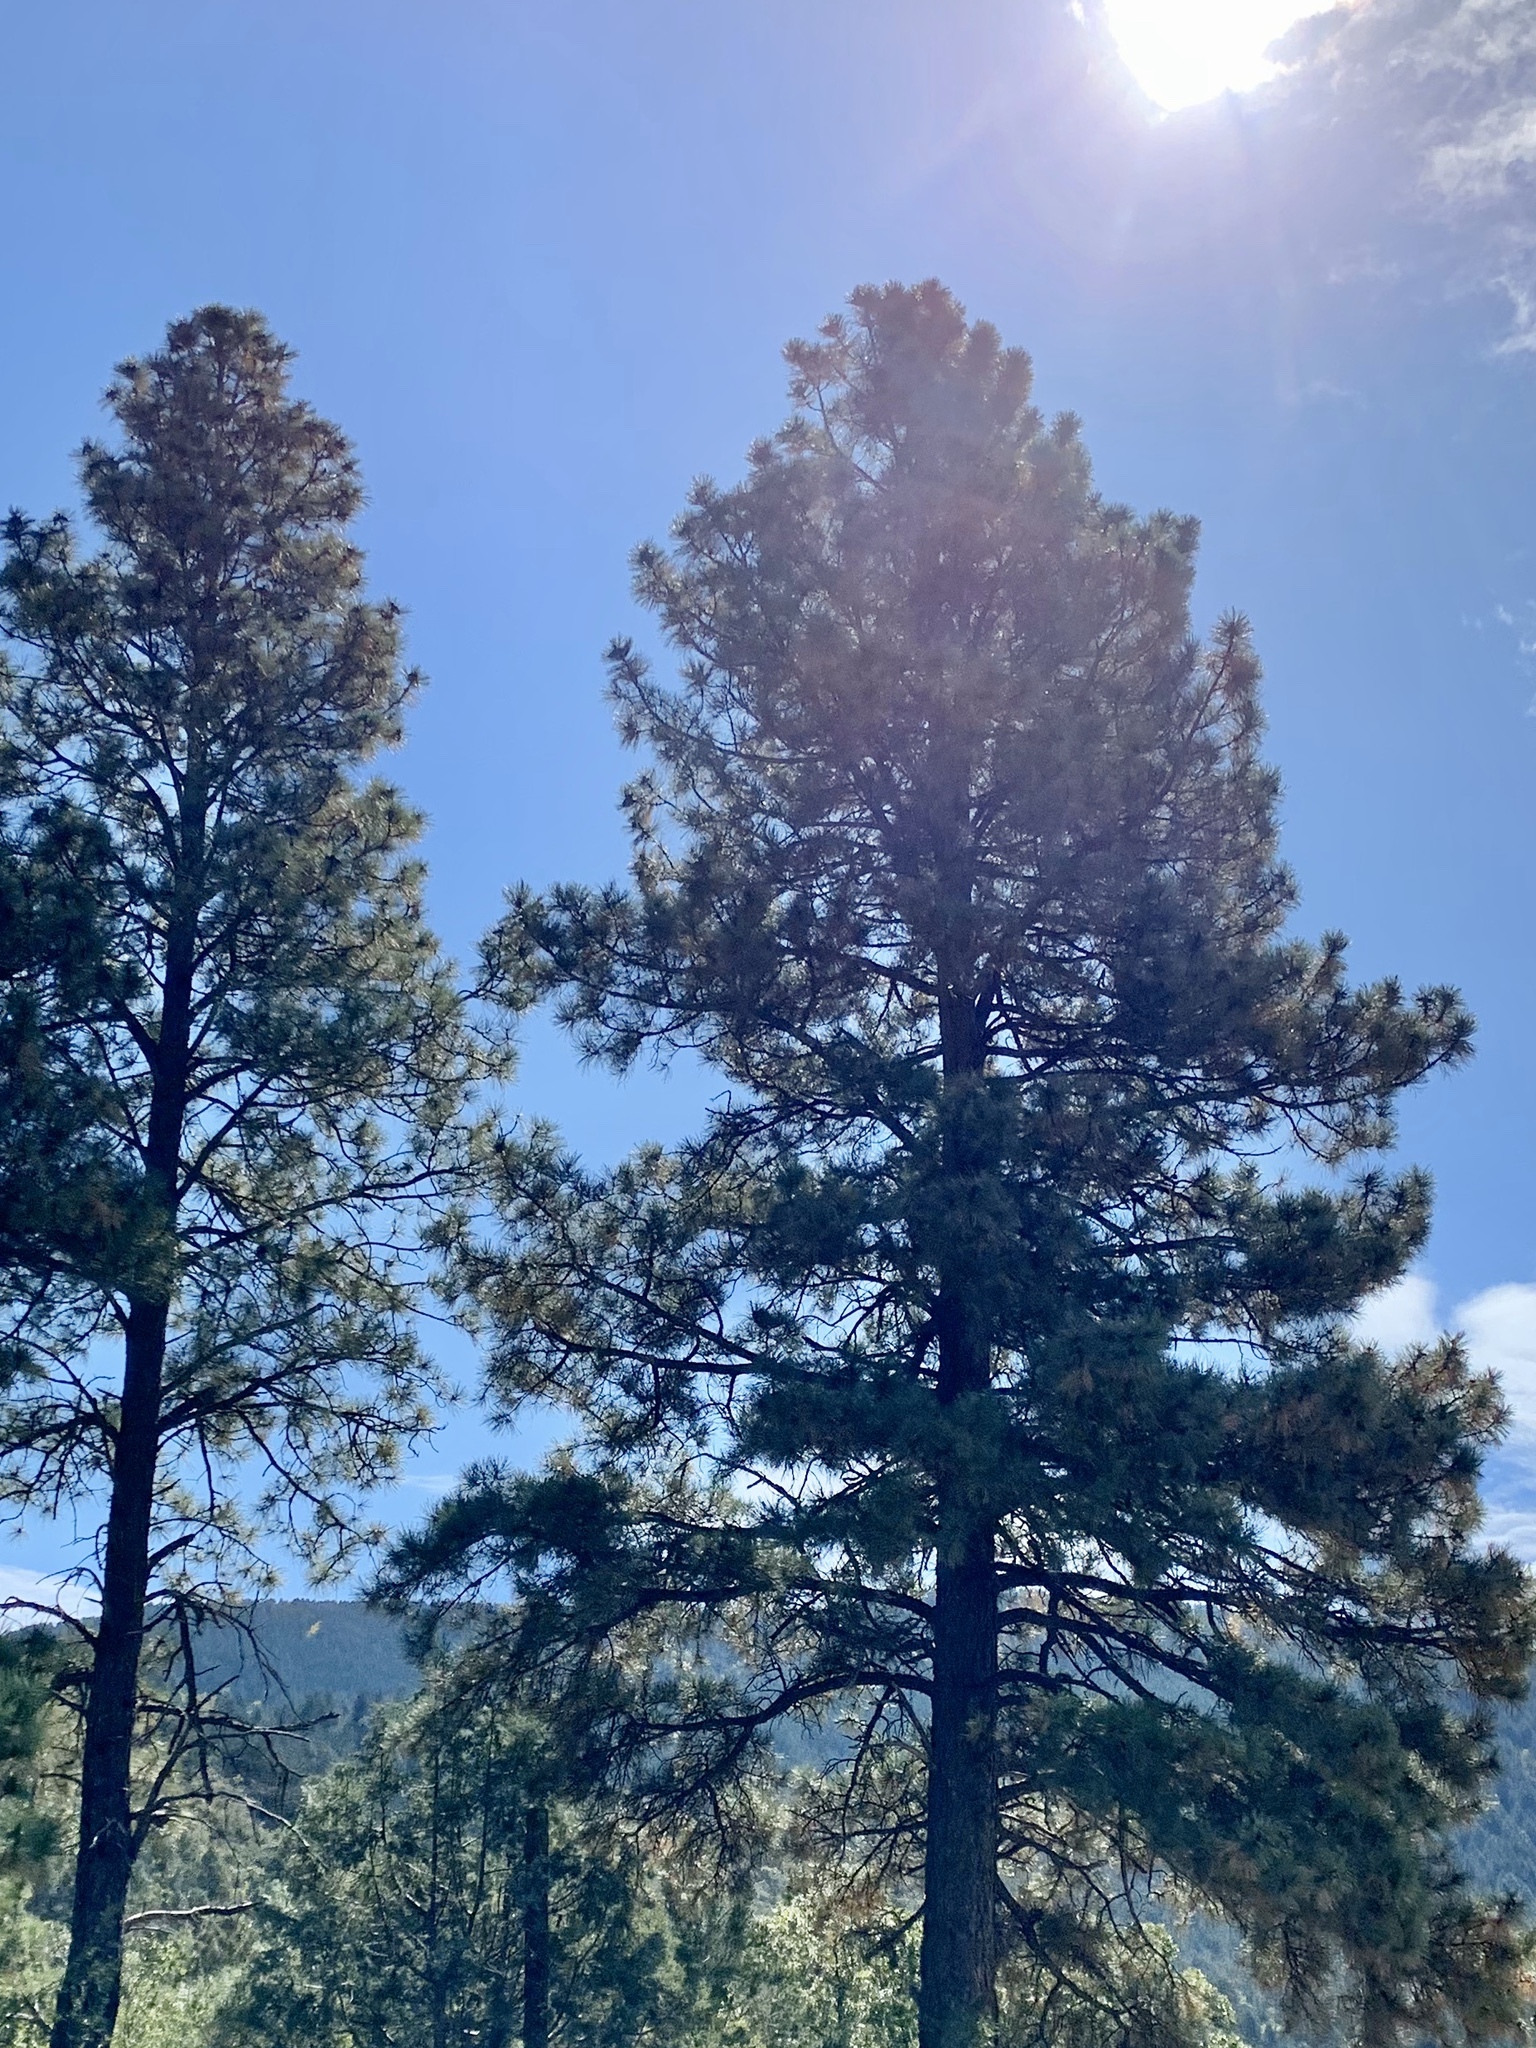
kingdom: Plantae
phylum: Tracheophyta
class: Pinopsida
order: Pinales
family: Pinaceae
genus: Pinus
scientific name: Pinus ponderosa
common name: Western yellow-pine
